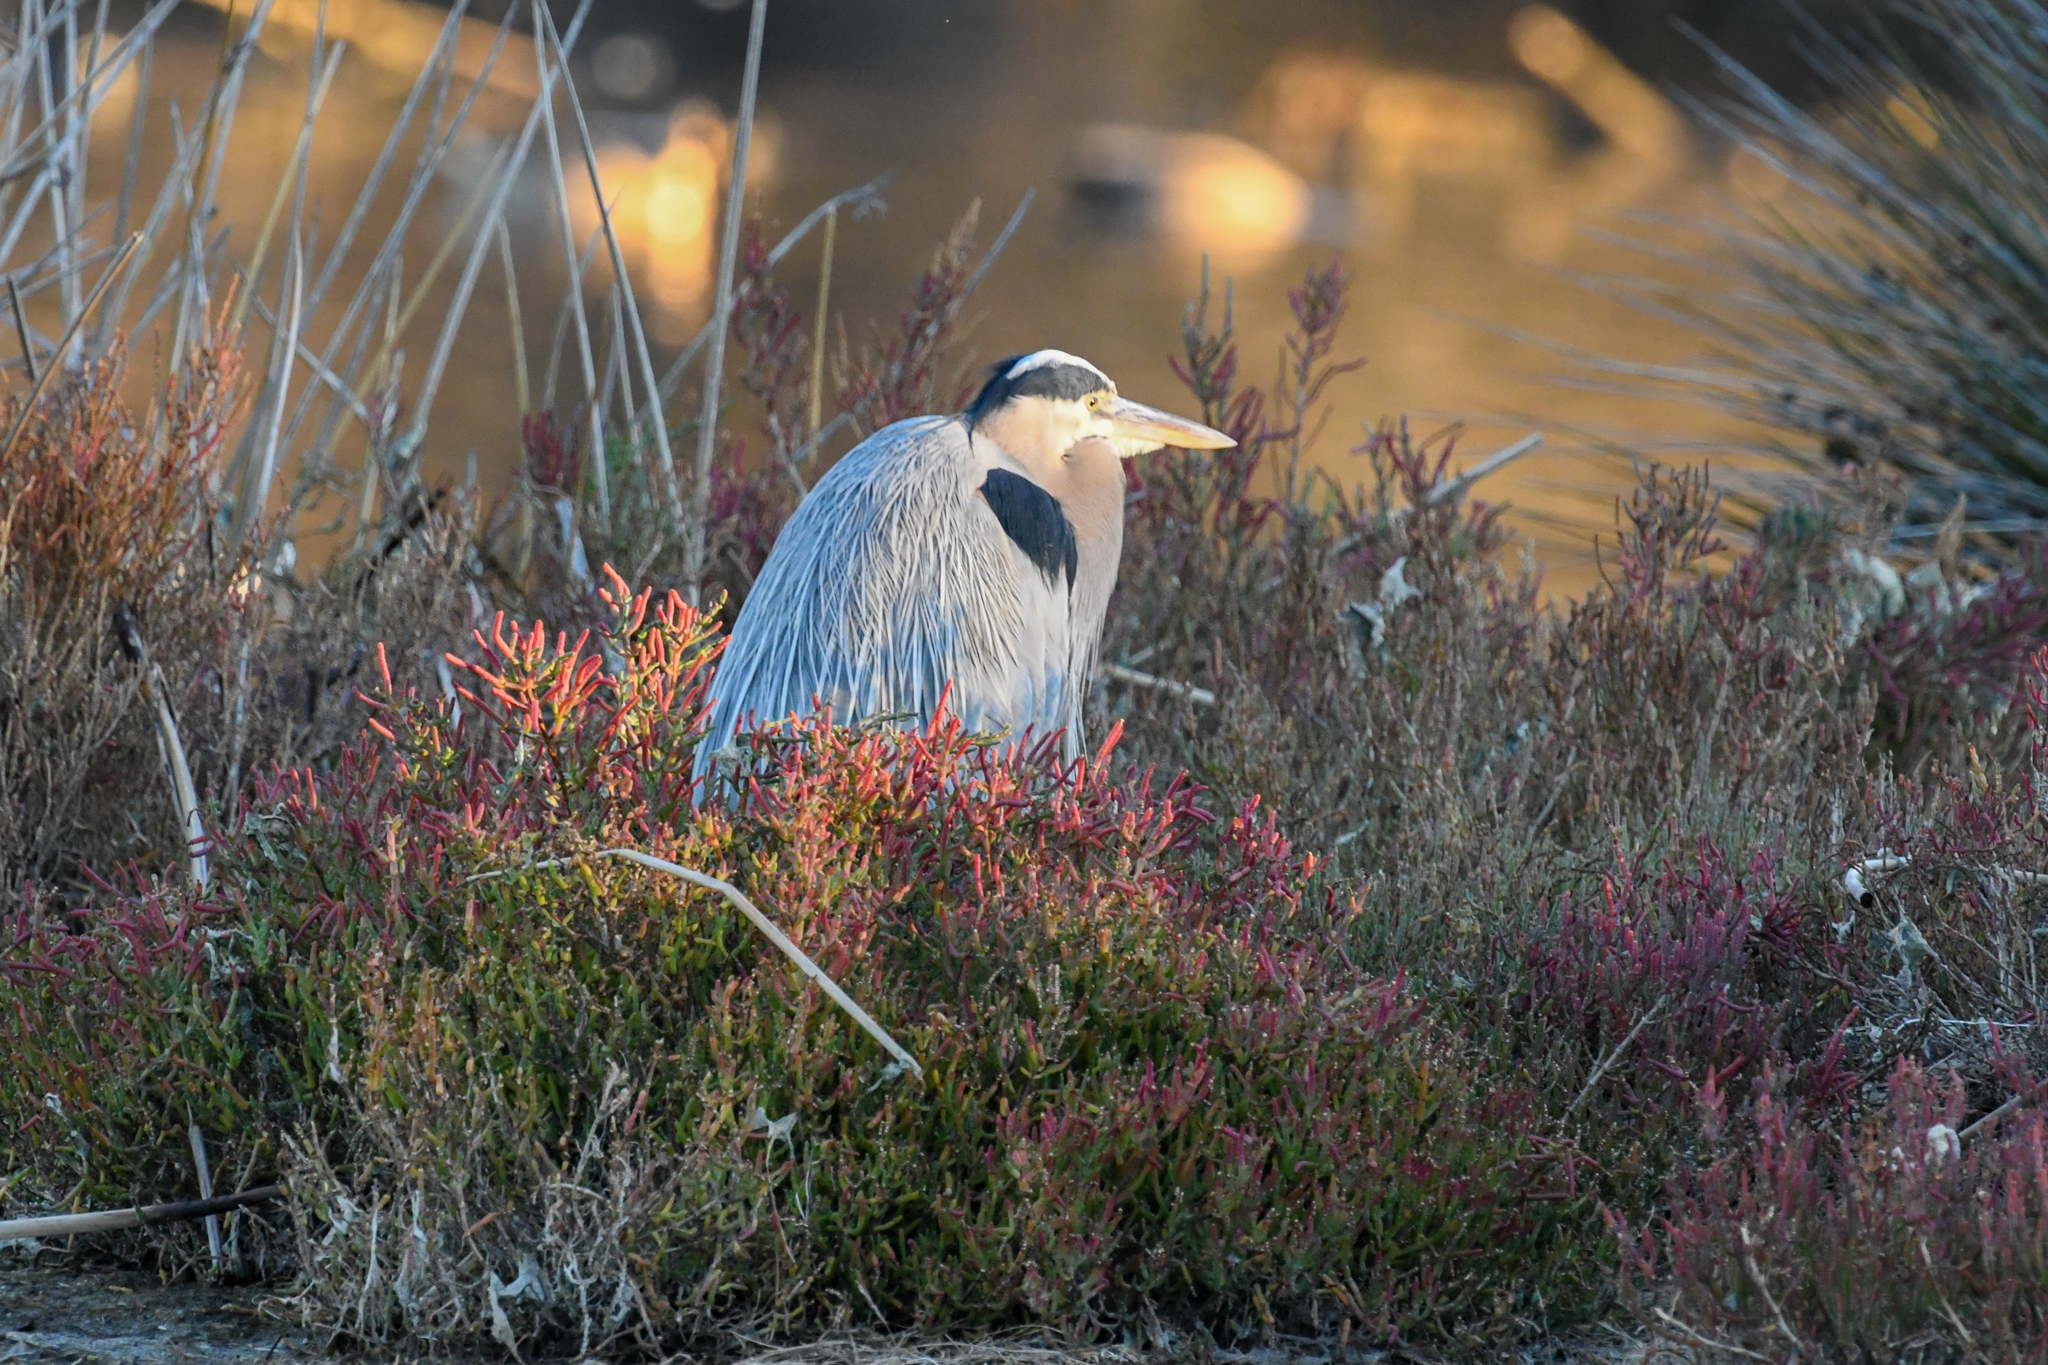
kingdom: Animalia
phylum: Chordata
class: Aves
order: Pelecaniformes
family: Ardeidae
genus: Ardea
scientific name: Ardea herodias
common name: Great blue heron
